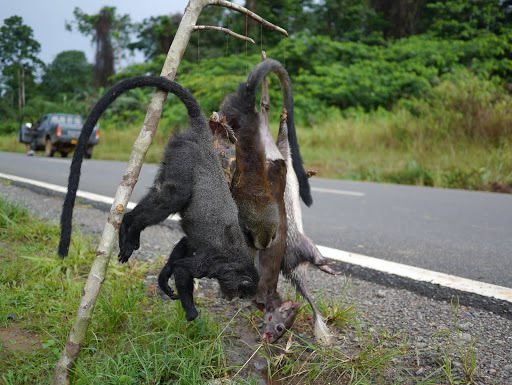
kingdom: Animalia
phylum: Chordata
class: Mammalia
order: Primates
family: Cercopithecidae
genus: Cercopithecus
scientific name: Cercopithecus pogonias
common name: Crested mona monkey
